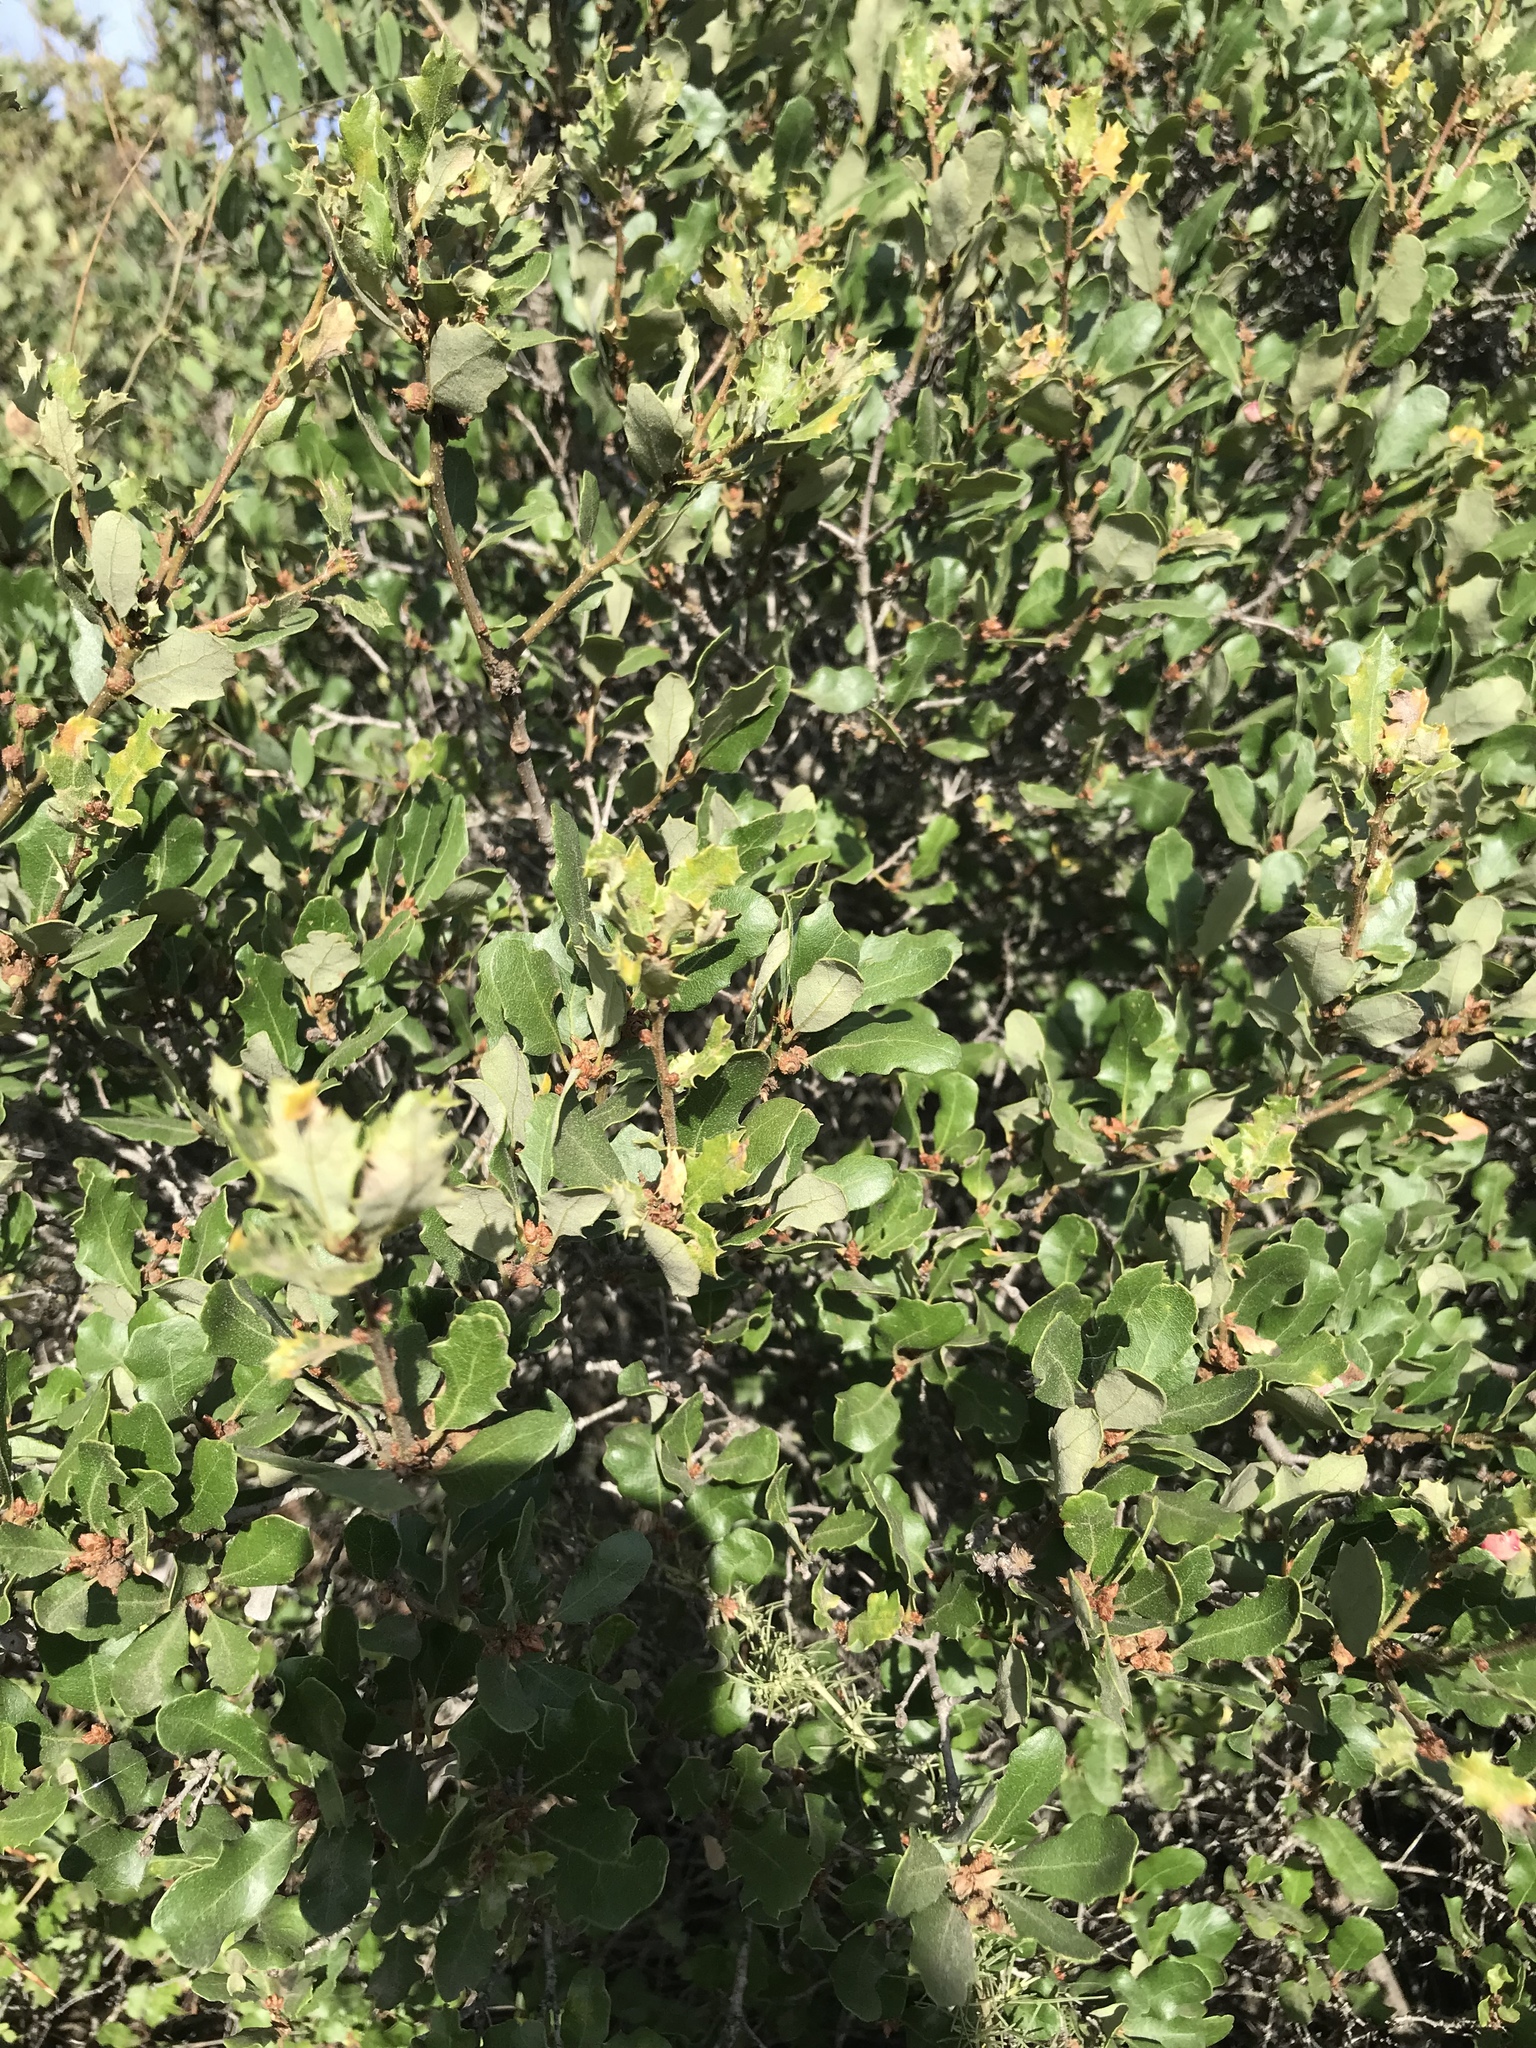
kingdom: Plantae
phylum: Tracheophyta
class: Magnoliopsida
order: Fagales
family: Fagaceae
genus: Quercus
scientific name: Quercus dumosa
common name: Coastal sage scrub oak
